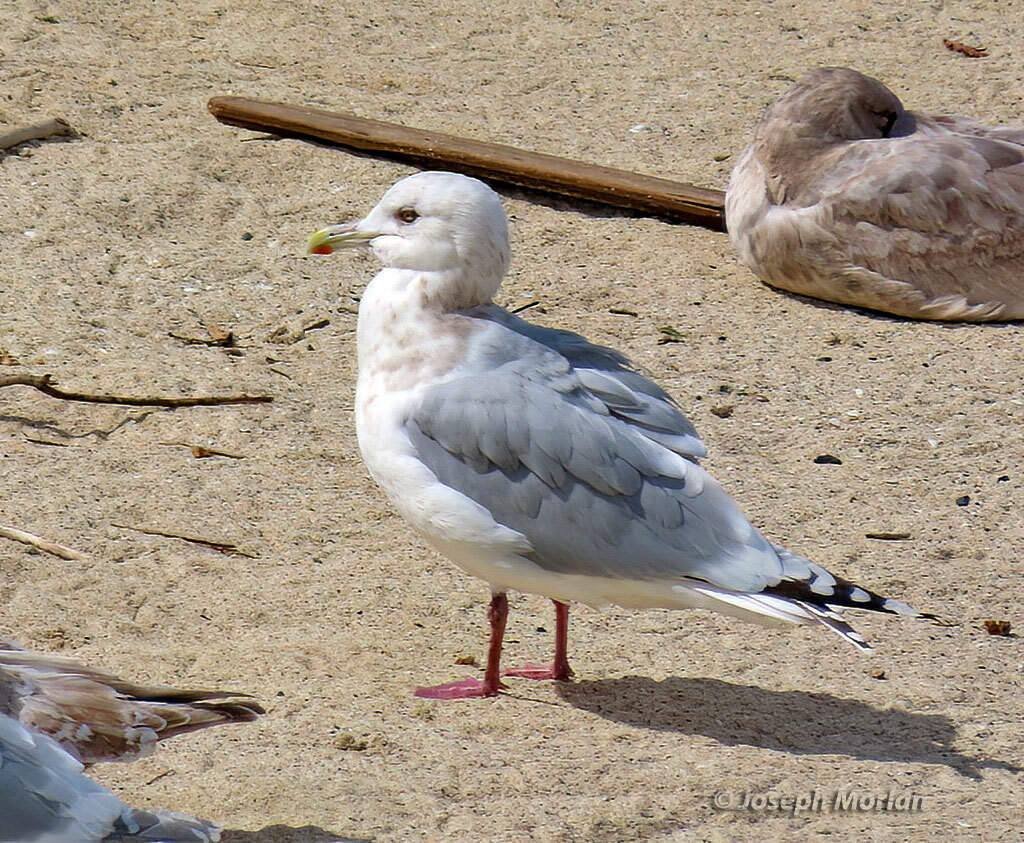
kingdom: Animalia
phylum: Chordata
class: Aves
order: Charadriiformes
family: Laridae
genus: Larus
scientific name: Larus glaucoides
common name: Iceland gull
